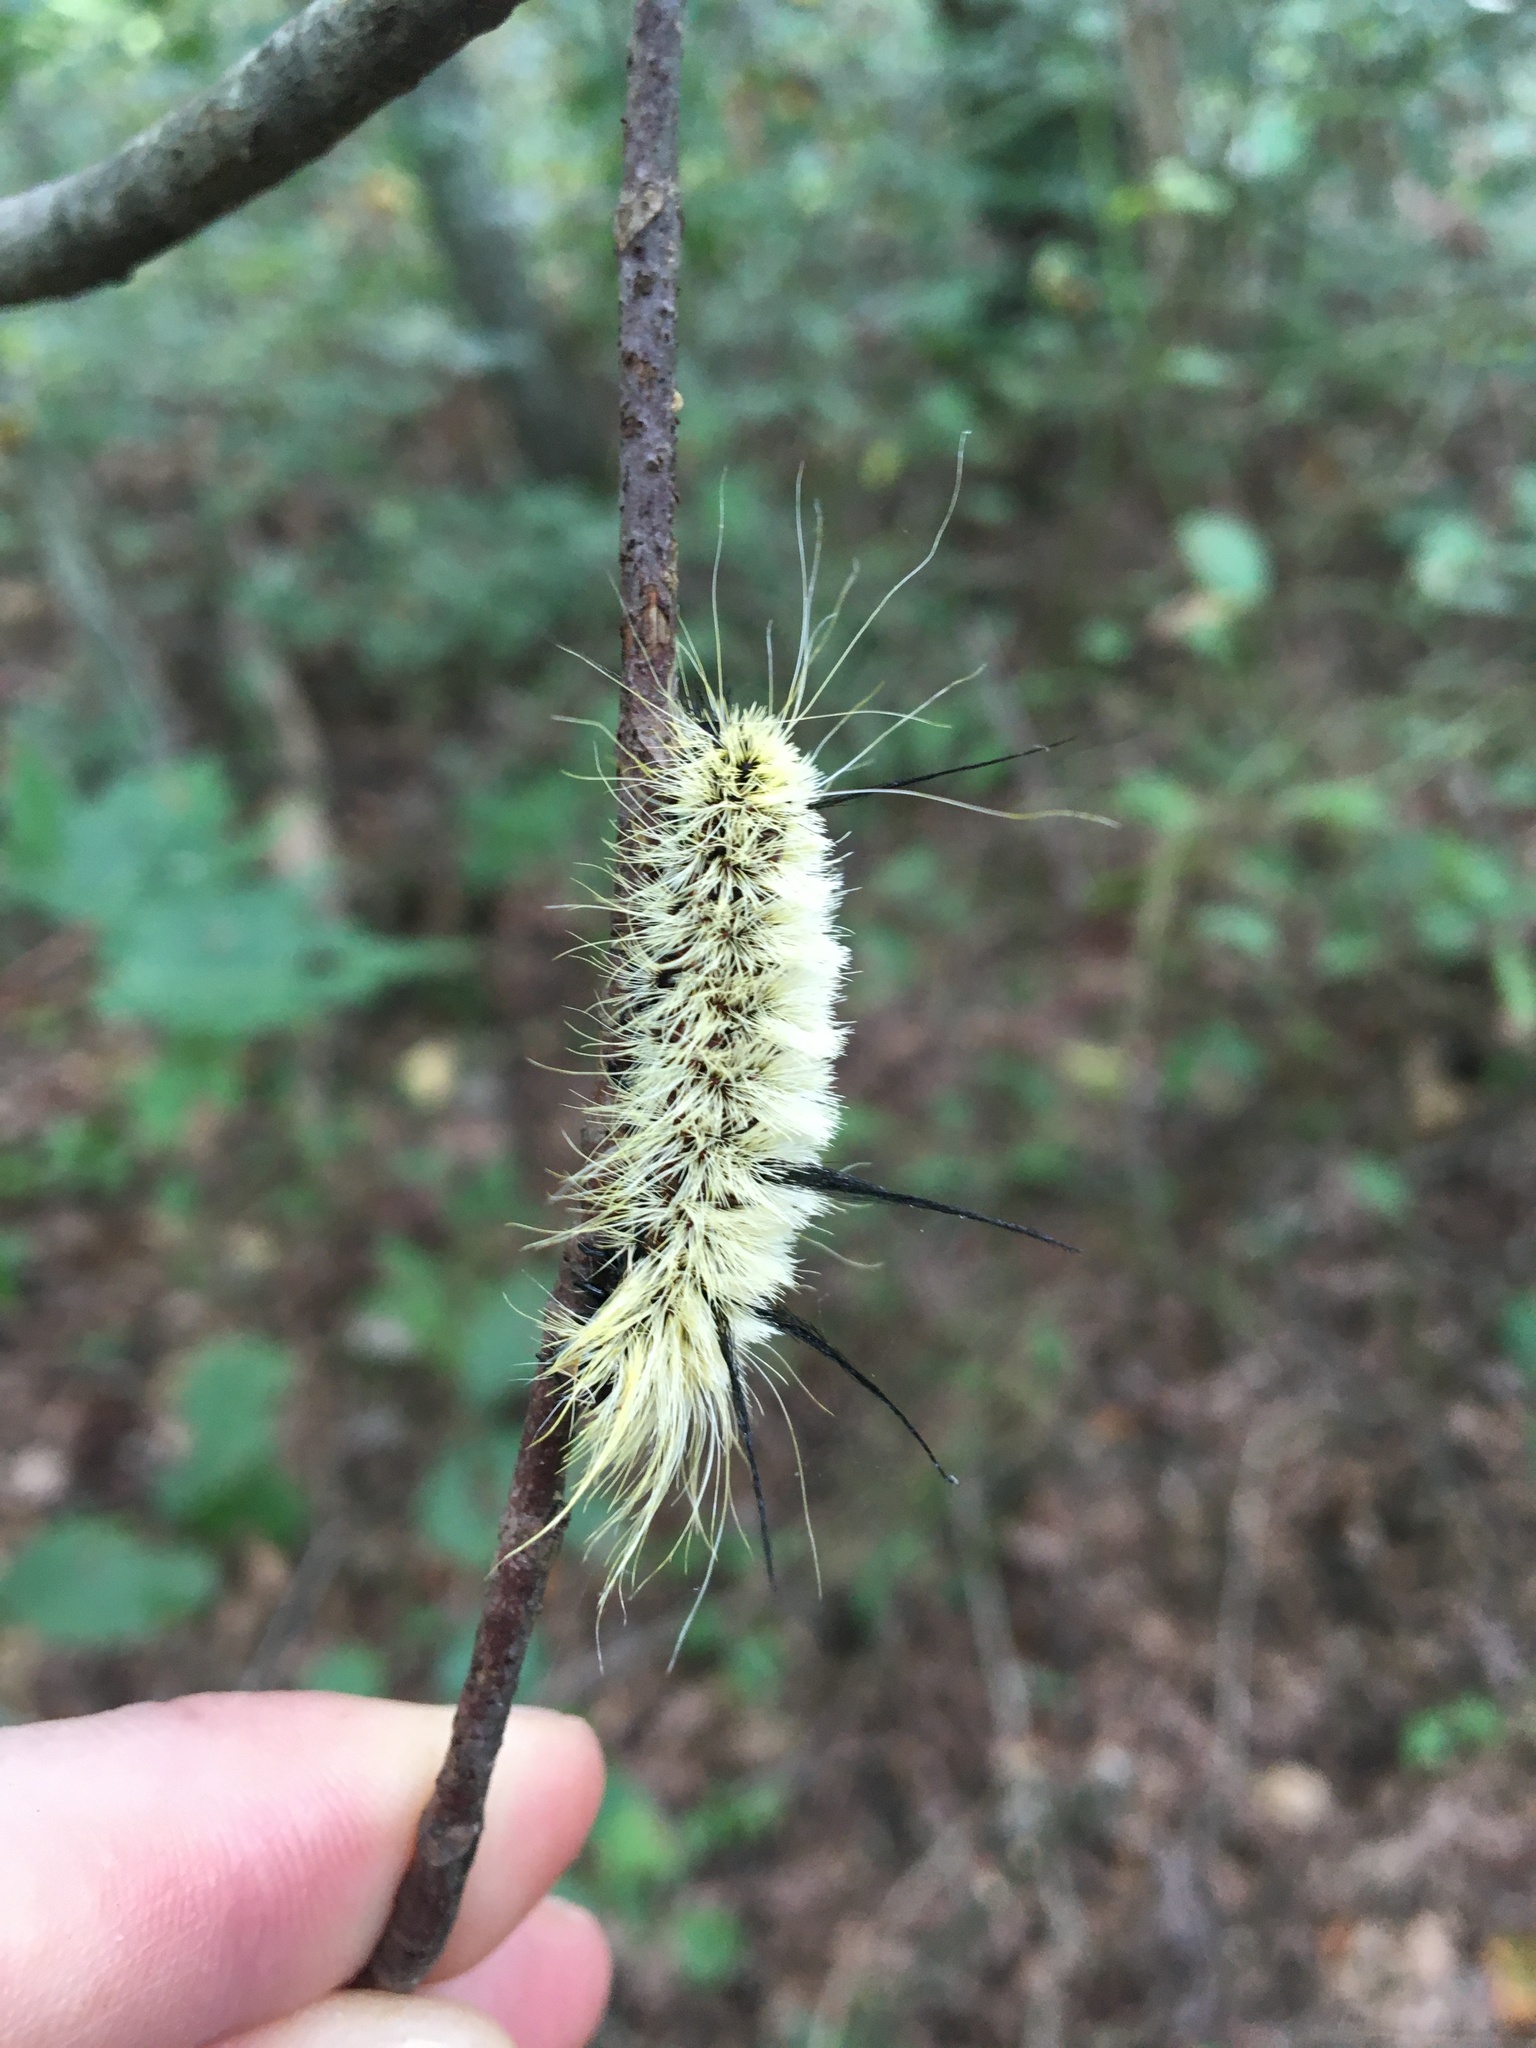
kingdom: Animalia
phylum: Arthropoda
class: Insecta
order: Lepidoptera
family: Noctuidae
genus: Acronicta
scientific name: Acronicta americana
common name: American dagger
